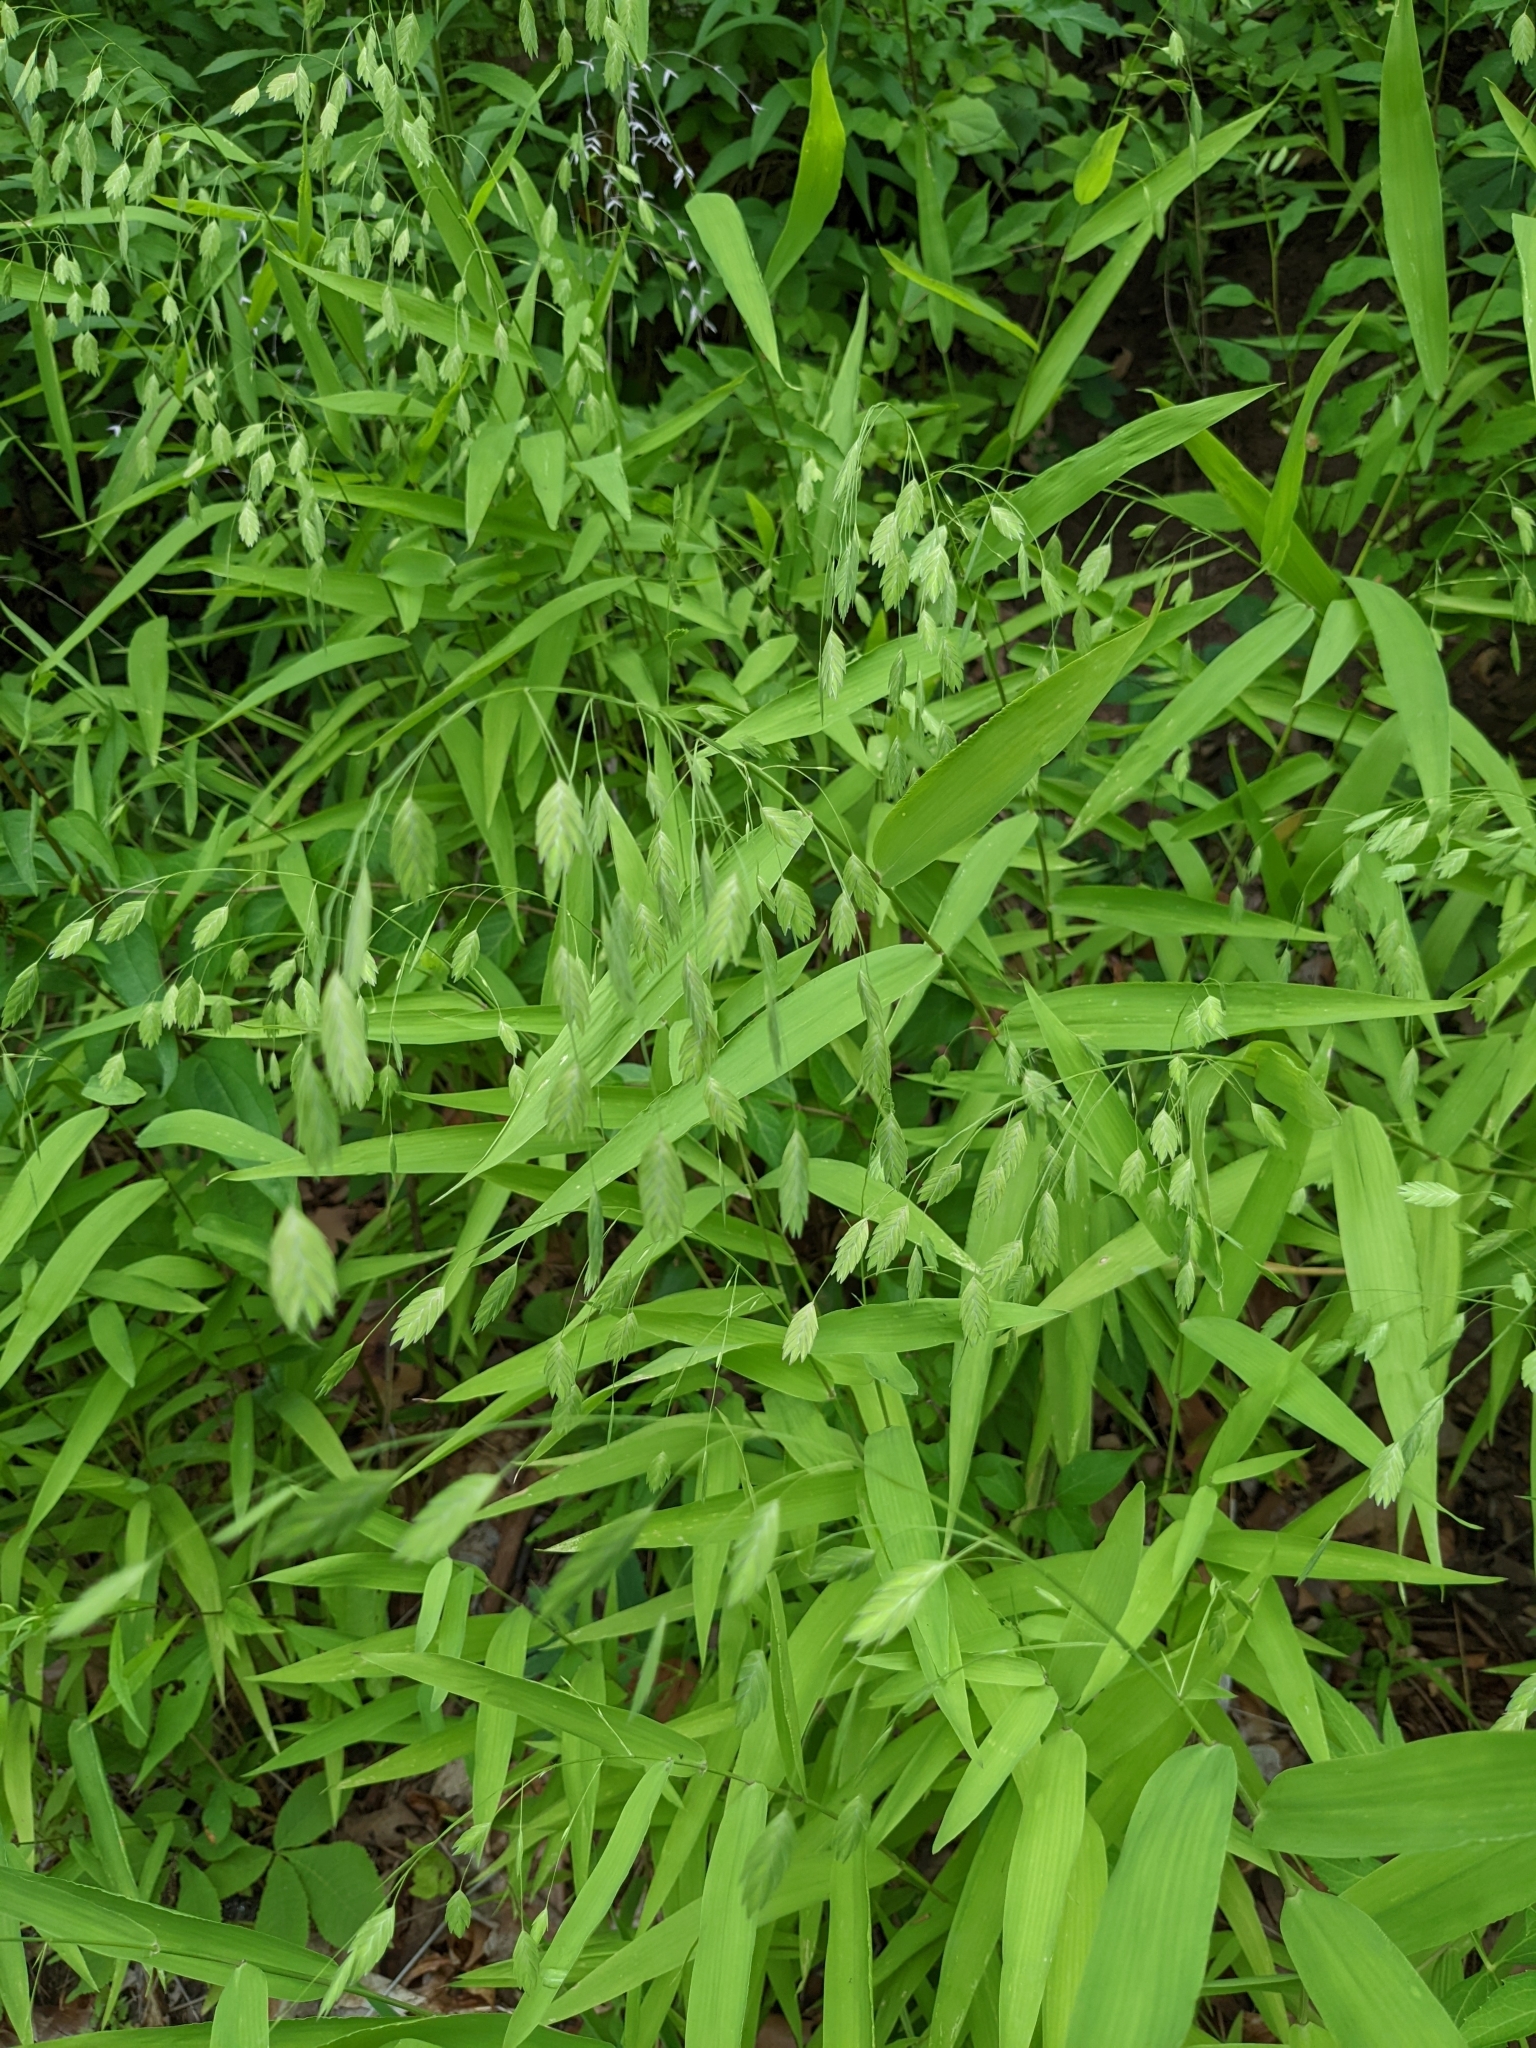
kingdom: Plantae
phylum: Tracheophyta
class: Liliopsida
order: Poales
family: Poaceae
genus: Chasmanthium
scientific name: Chasmanthium latifolium
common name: Broad-leaved chasmanthium
